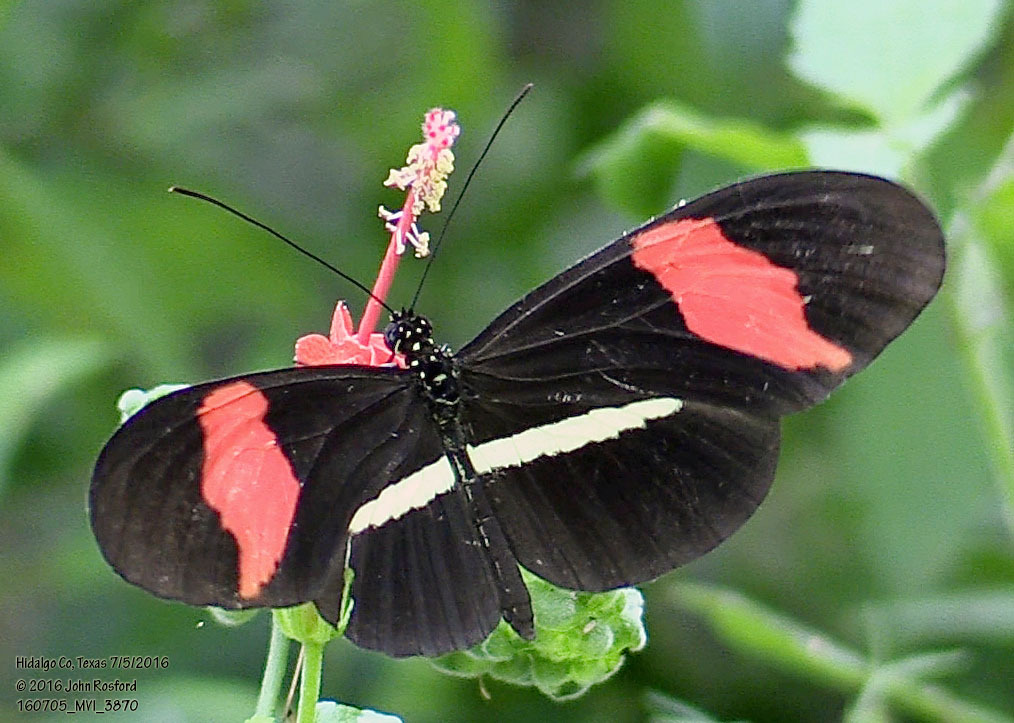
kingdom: Animalia
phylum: Arthropoda
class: Insecta
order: Lepidoptera
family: Nymphalidae
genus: Heliconius
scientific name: Heliconius erato
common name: Common patch longwing
